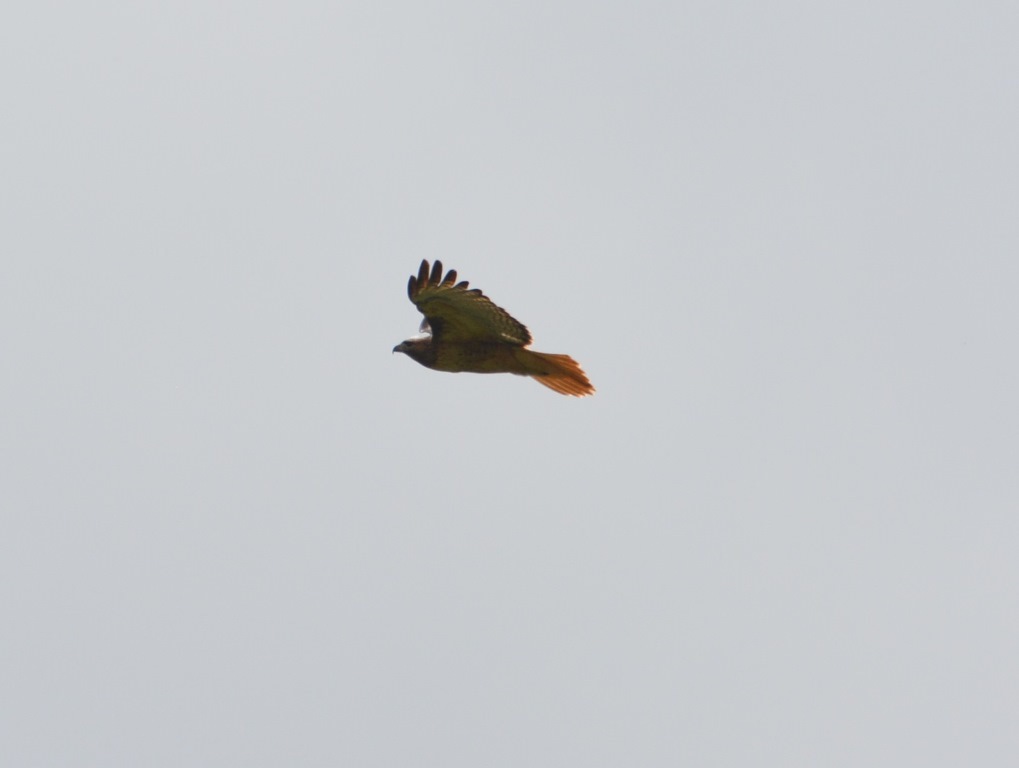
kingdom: Animalia
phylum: Chordata
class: Aves
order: Accipitriformes
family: Accipitridae
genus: Buteo
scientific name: Buteo jamaicensis
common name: Red-tailed hawk
